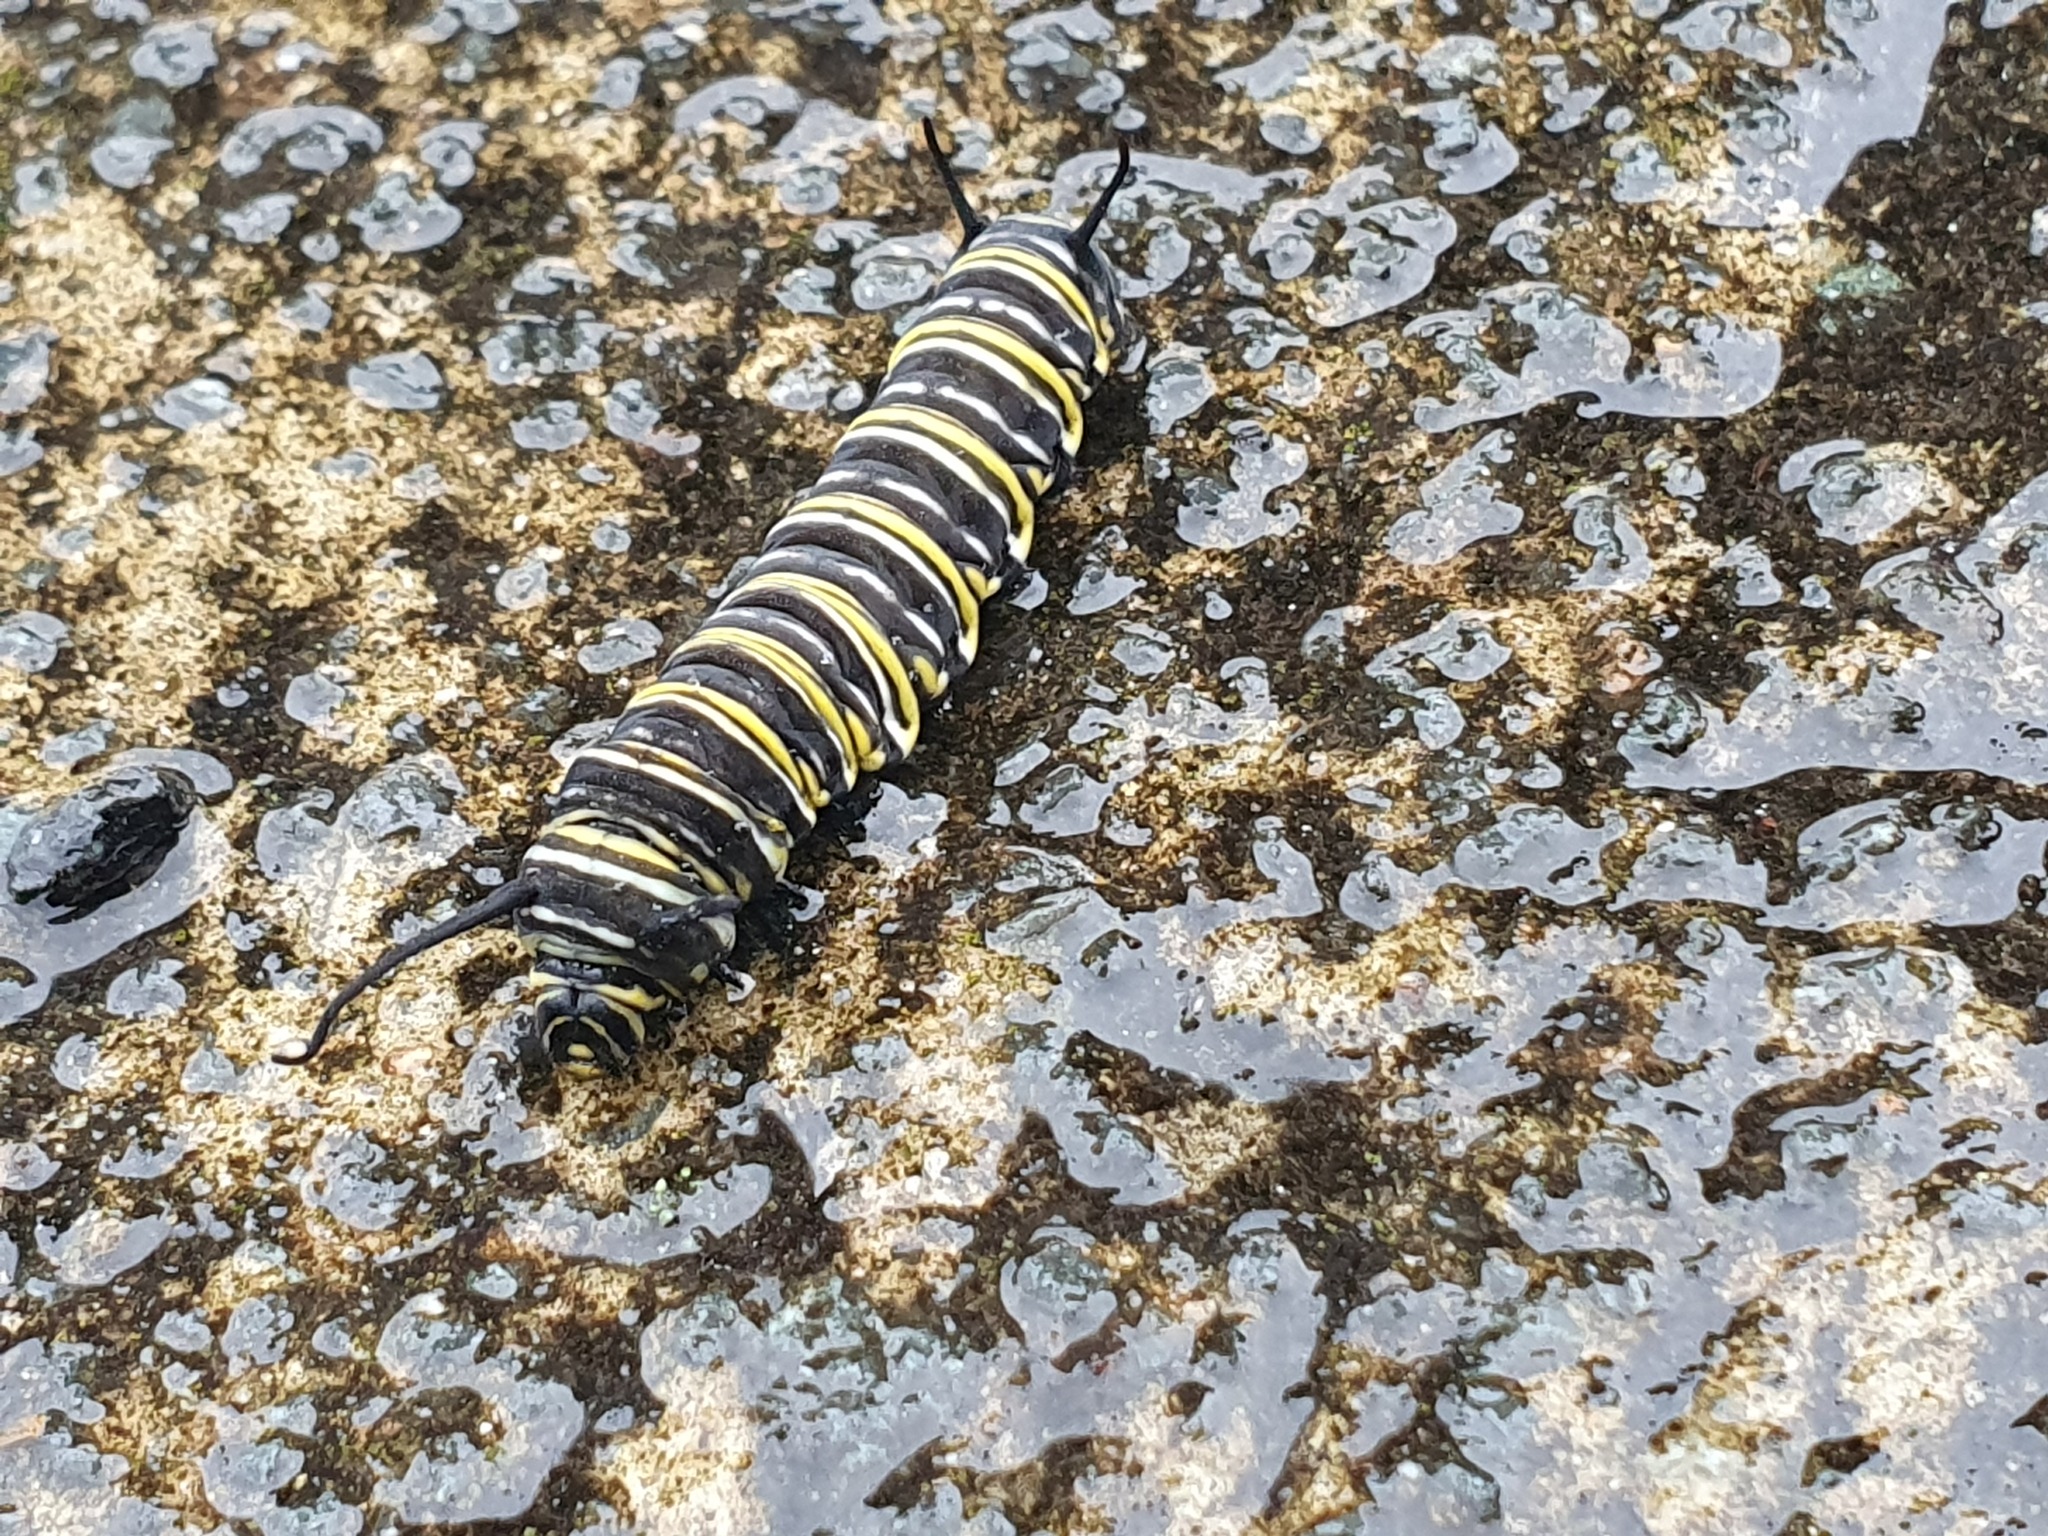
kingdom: Animalia
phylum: Arthropoda
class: Insecta
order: Lepidoptera
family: Nymphalidae
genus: Danaus
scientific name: Danaus plexippus
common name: Monarch
